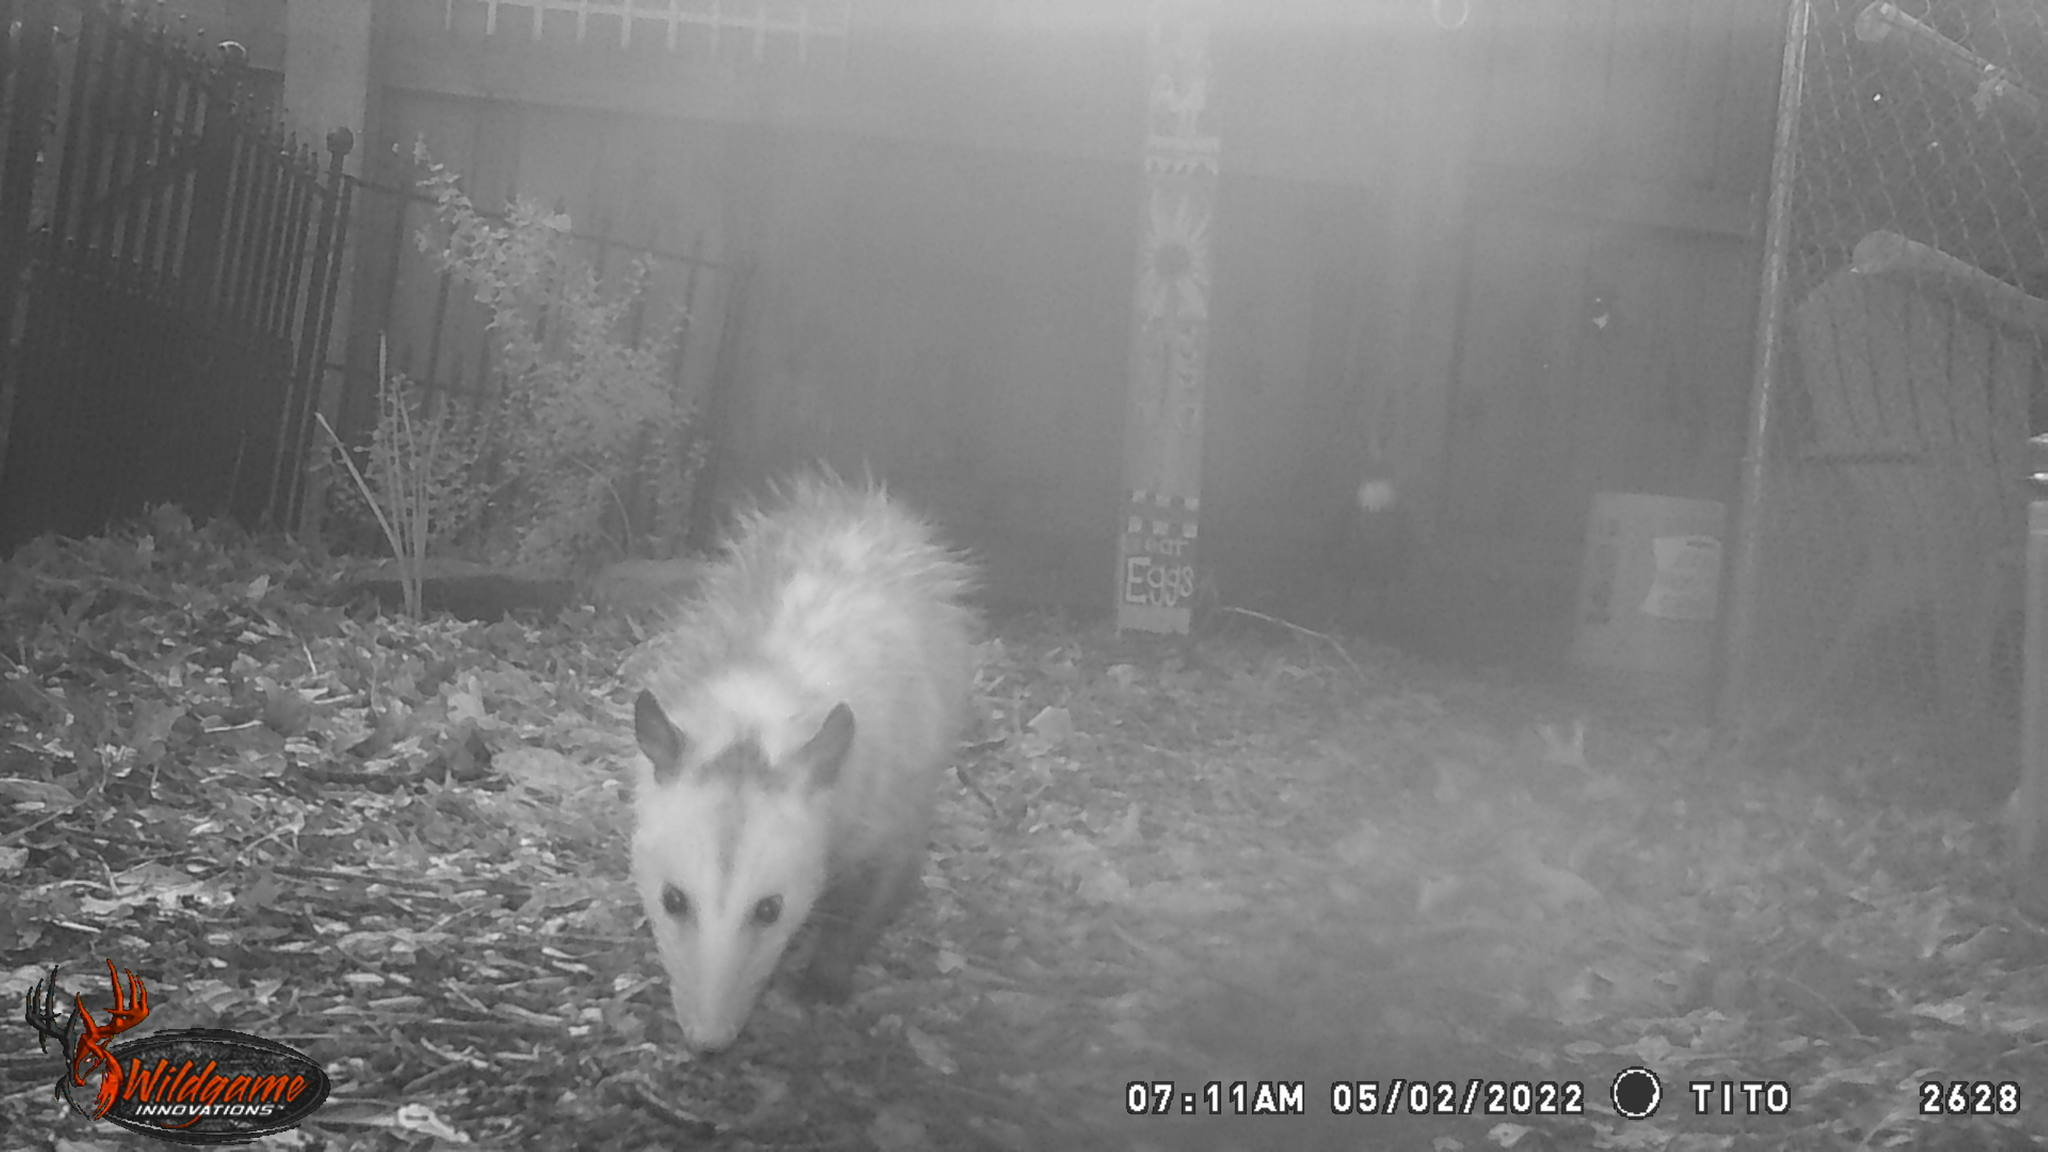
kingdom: Animalia
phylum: Chordata
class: Mammalia
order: Didelphimorphia
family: Didelphidae
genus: Didelphis
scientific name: Didelphis virginiana
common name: Virginia opossum
